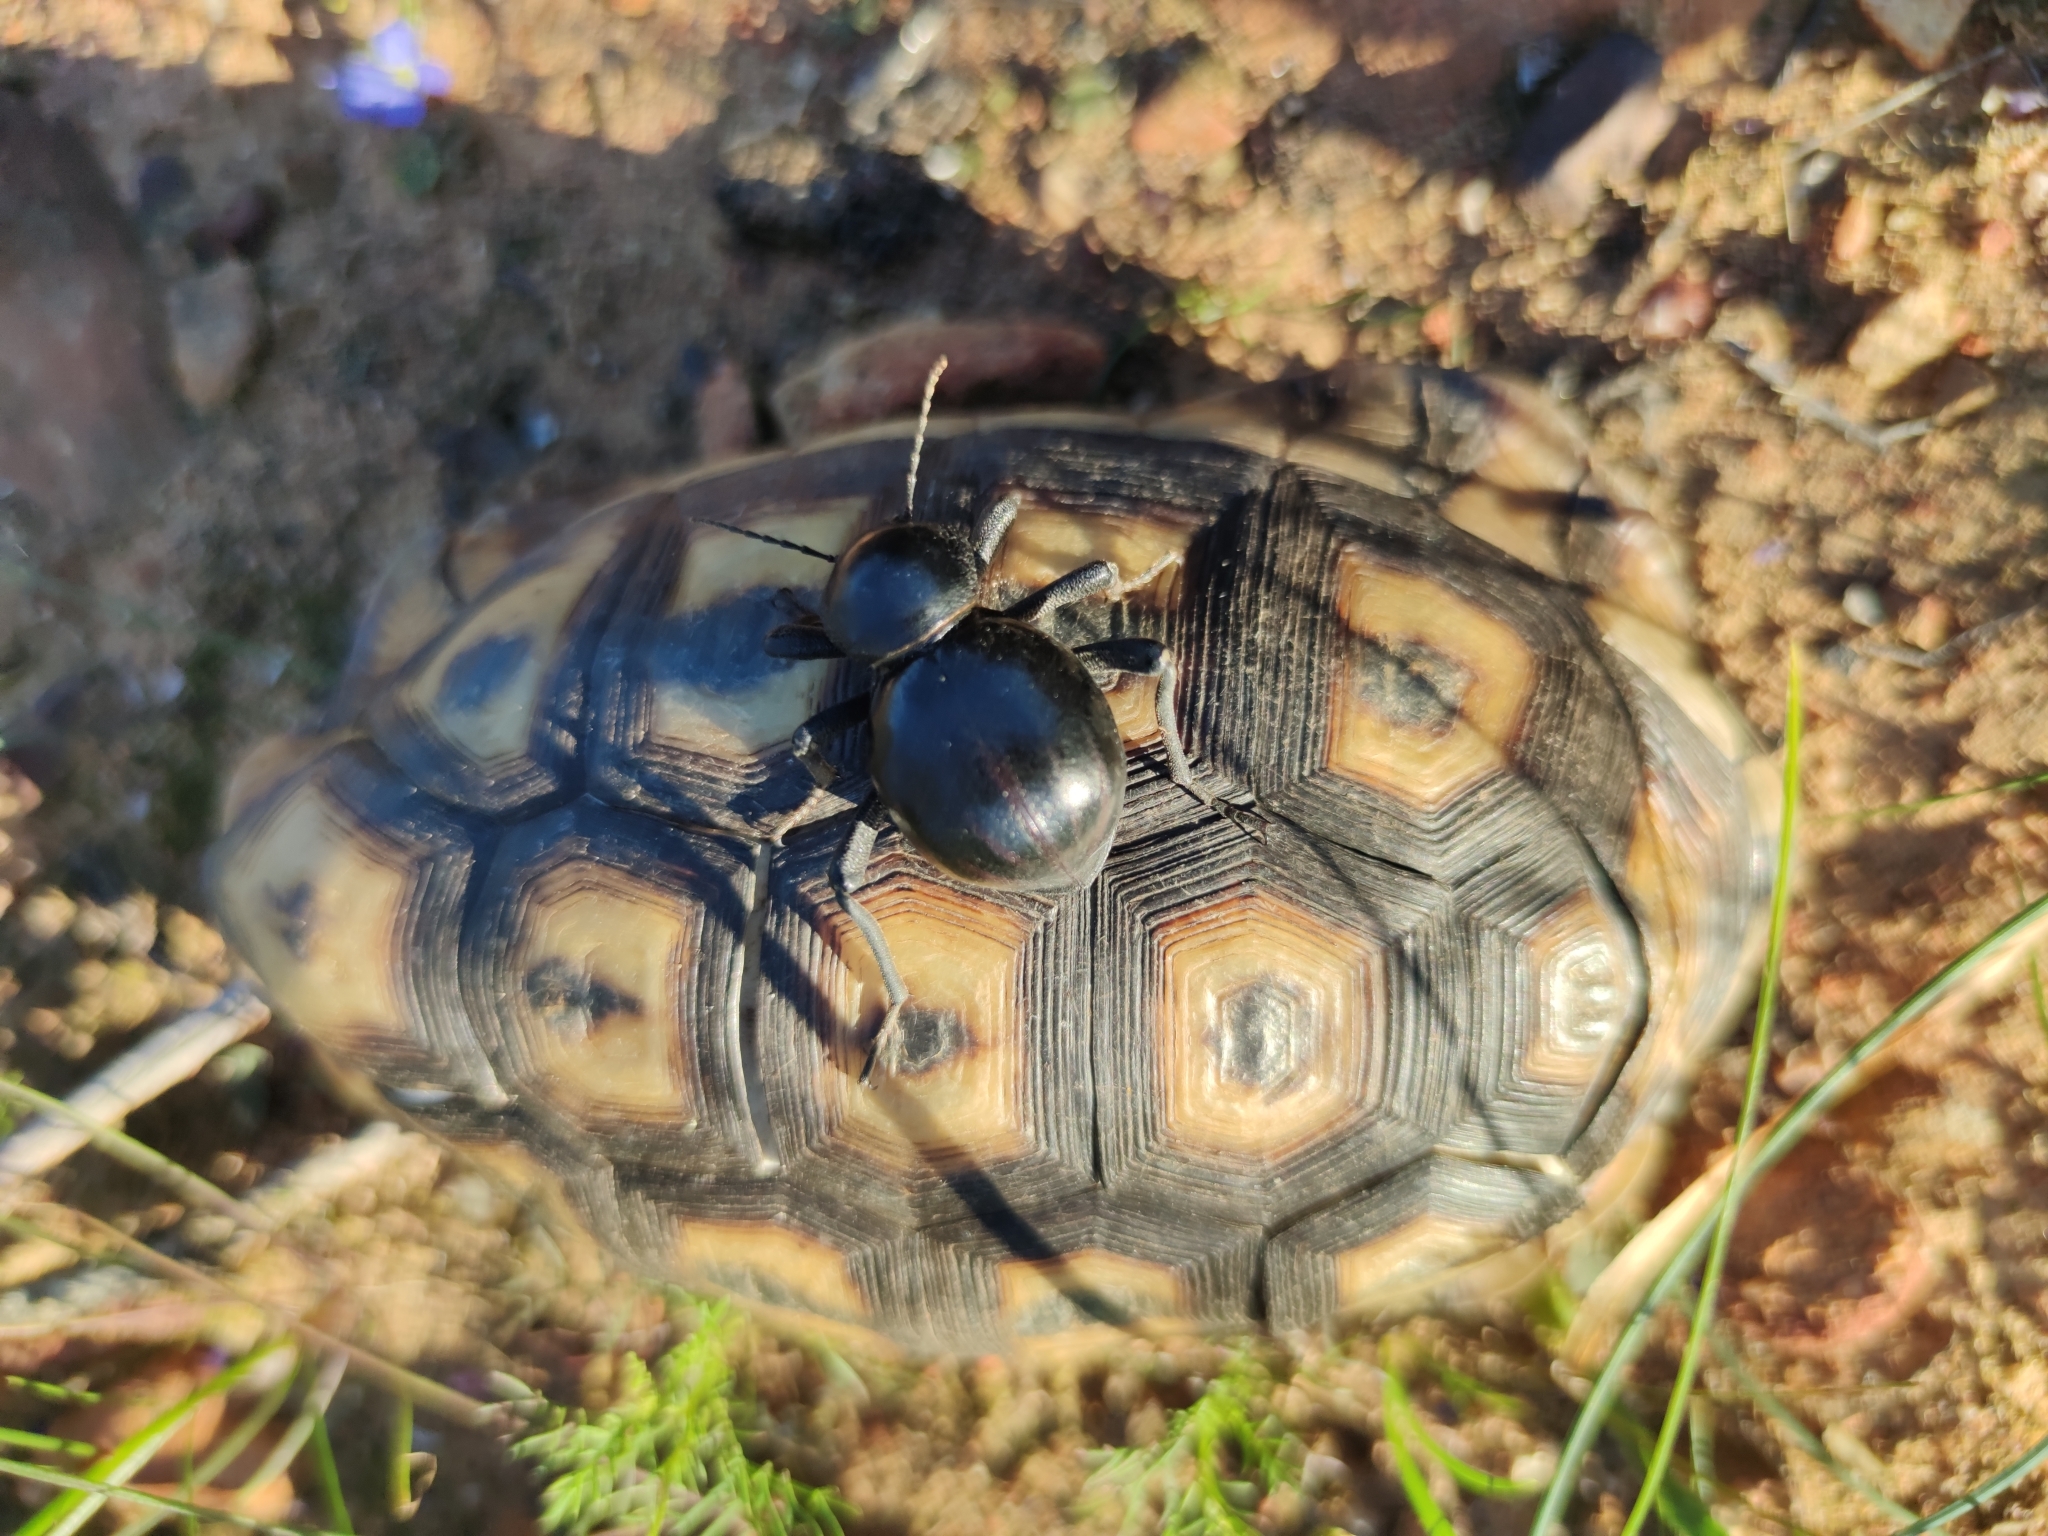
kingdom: Animalia
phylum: Chordata
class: Testudines
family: Testudinidae
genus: Chersina
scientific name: Chersina angulata
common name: South african bowsprit tortoise
